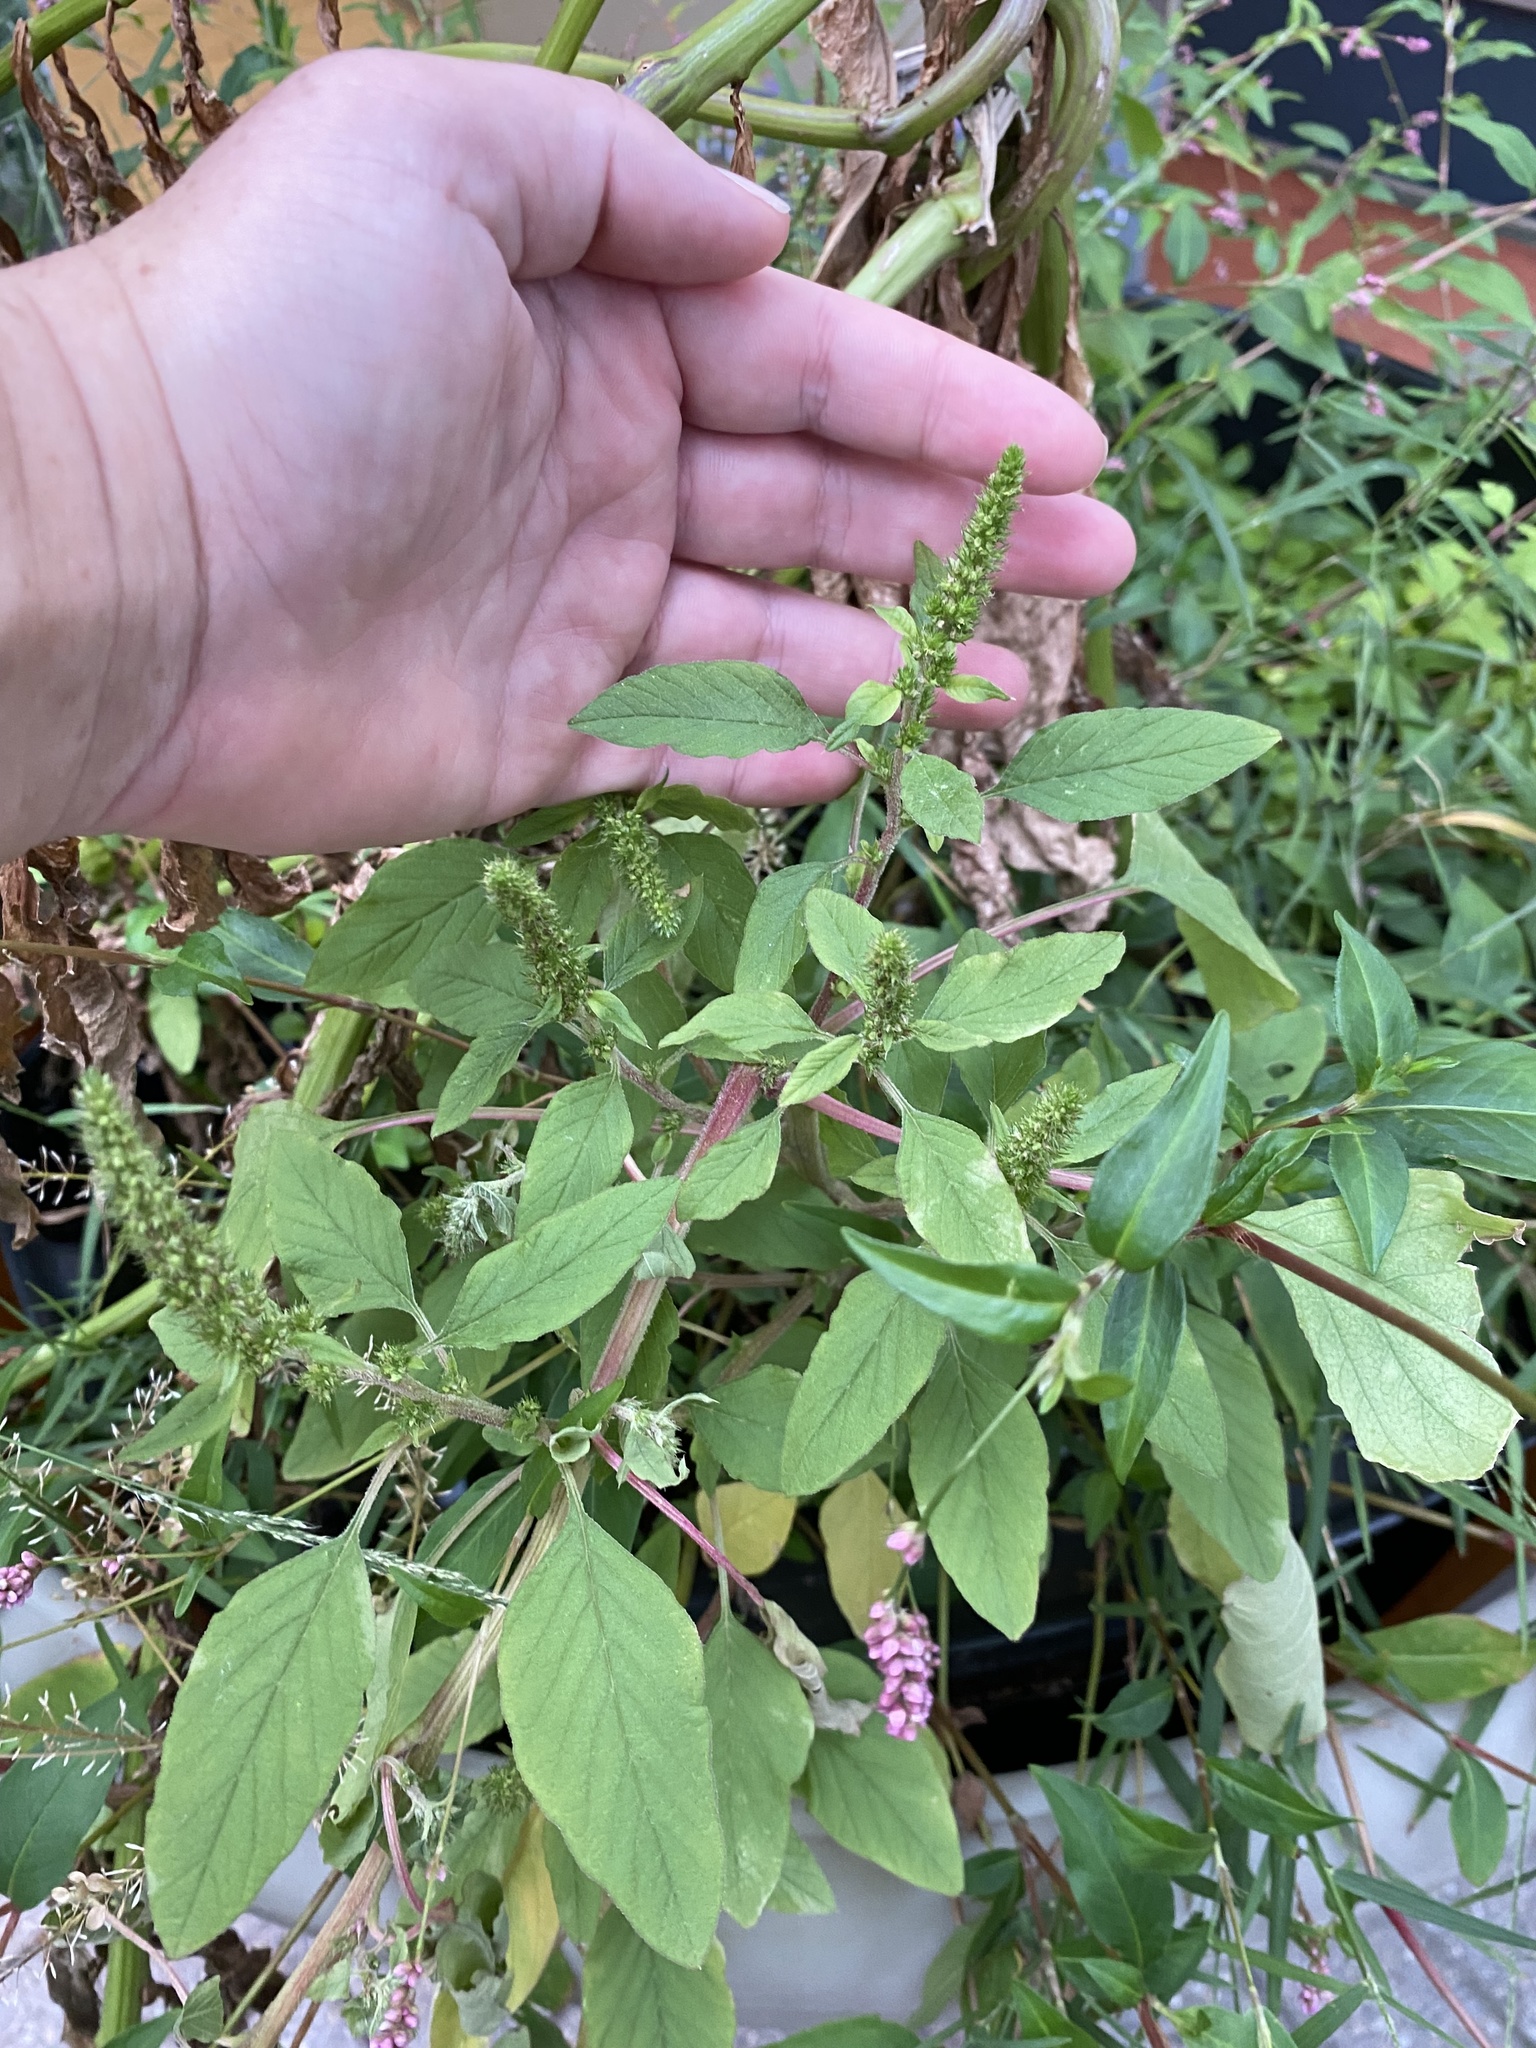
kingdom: Plantae
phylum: Tracheophyta
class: Magnoliopsida
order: Caryophyllales
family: Amaranthaceae
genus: Amaranthus
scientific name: Amaranthus hybridus
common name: Green amaranth
